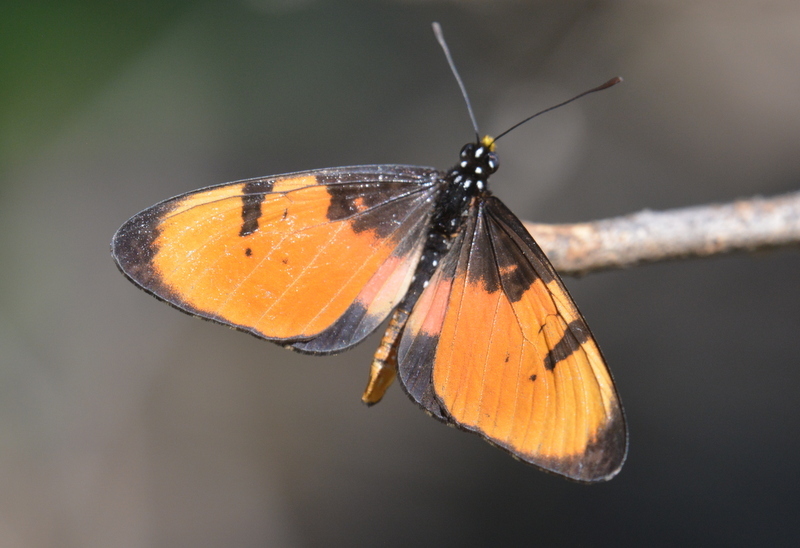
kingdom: Animalia
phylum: Arthropoda
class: Insecta
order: Lepidoptera
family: Nymphalidae
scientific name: Nymphalidae
